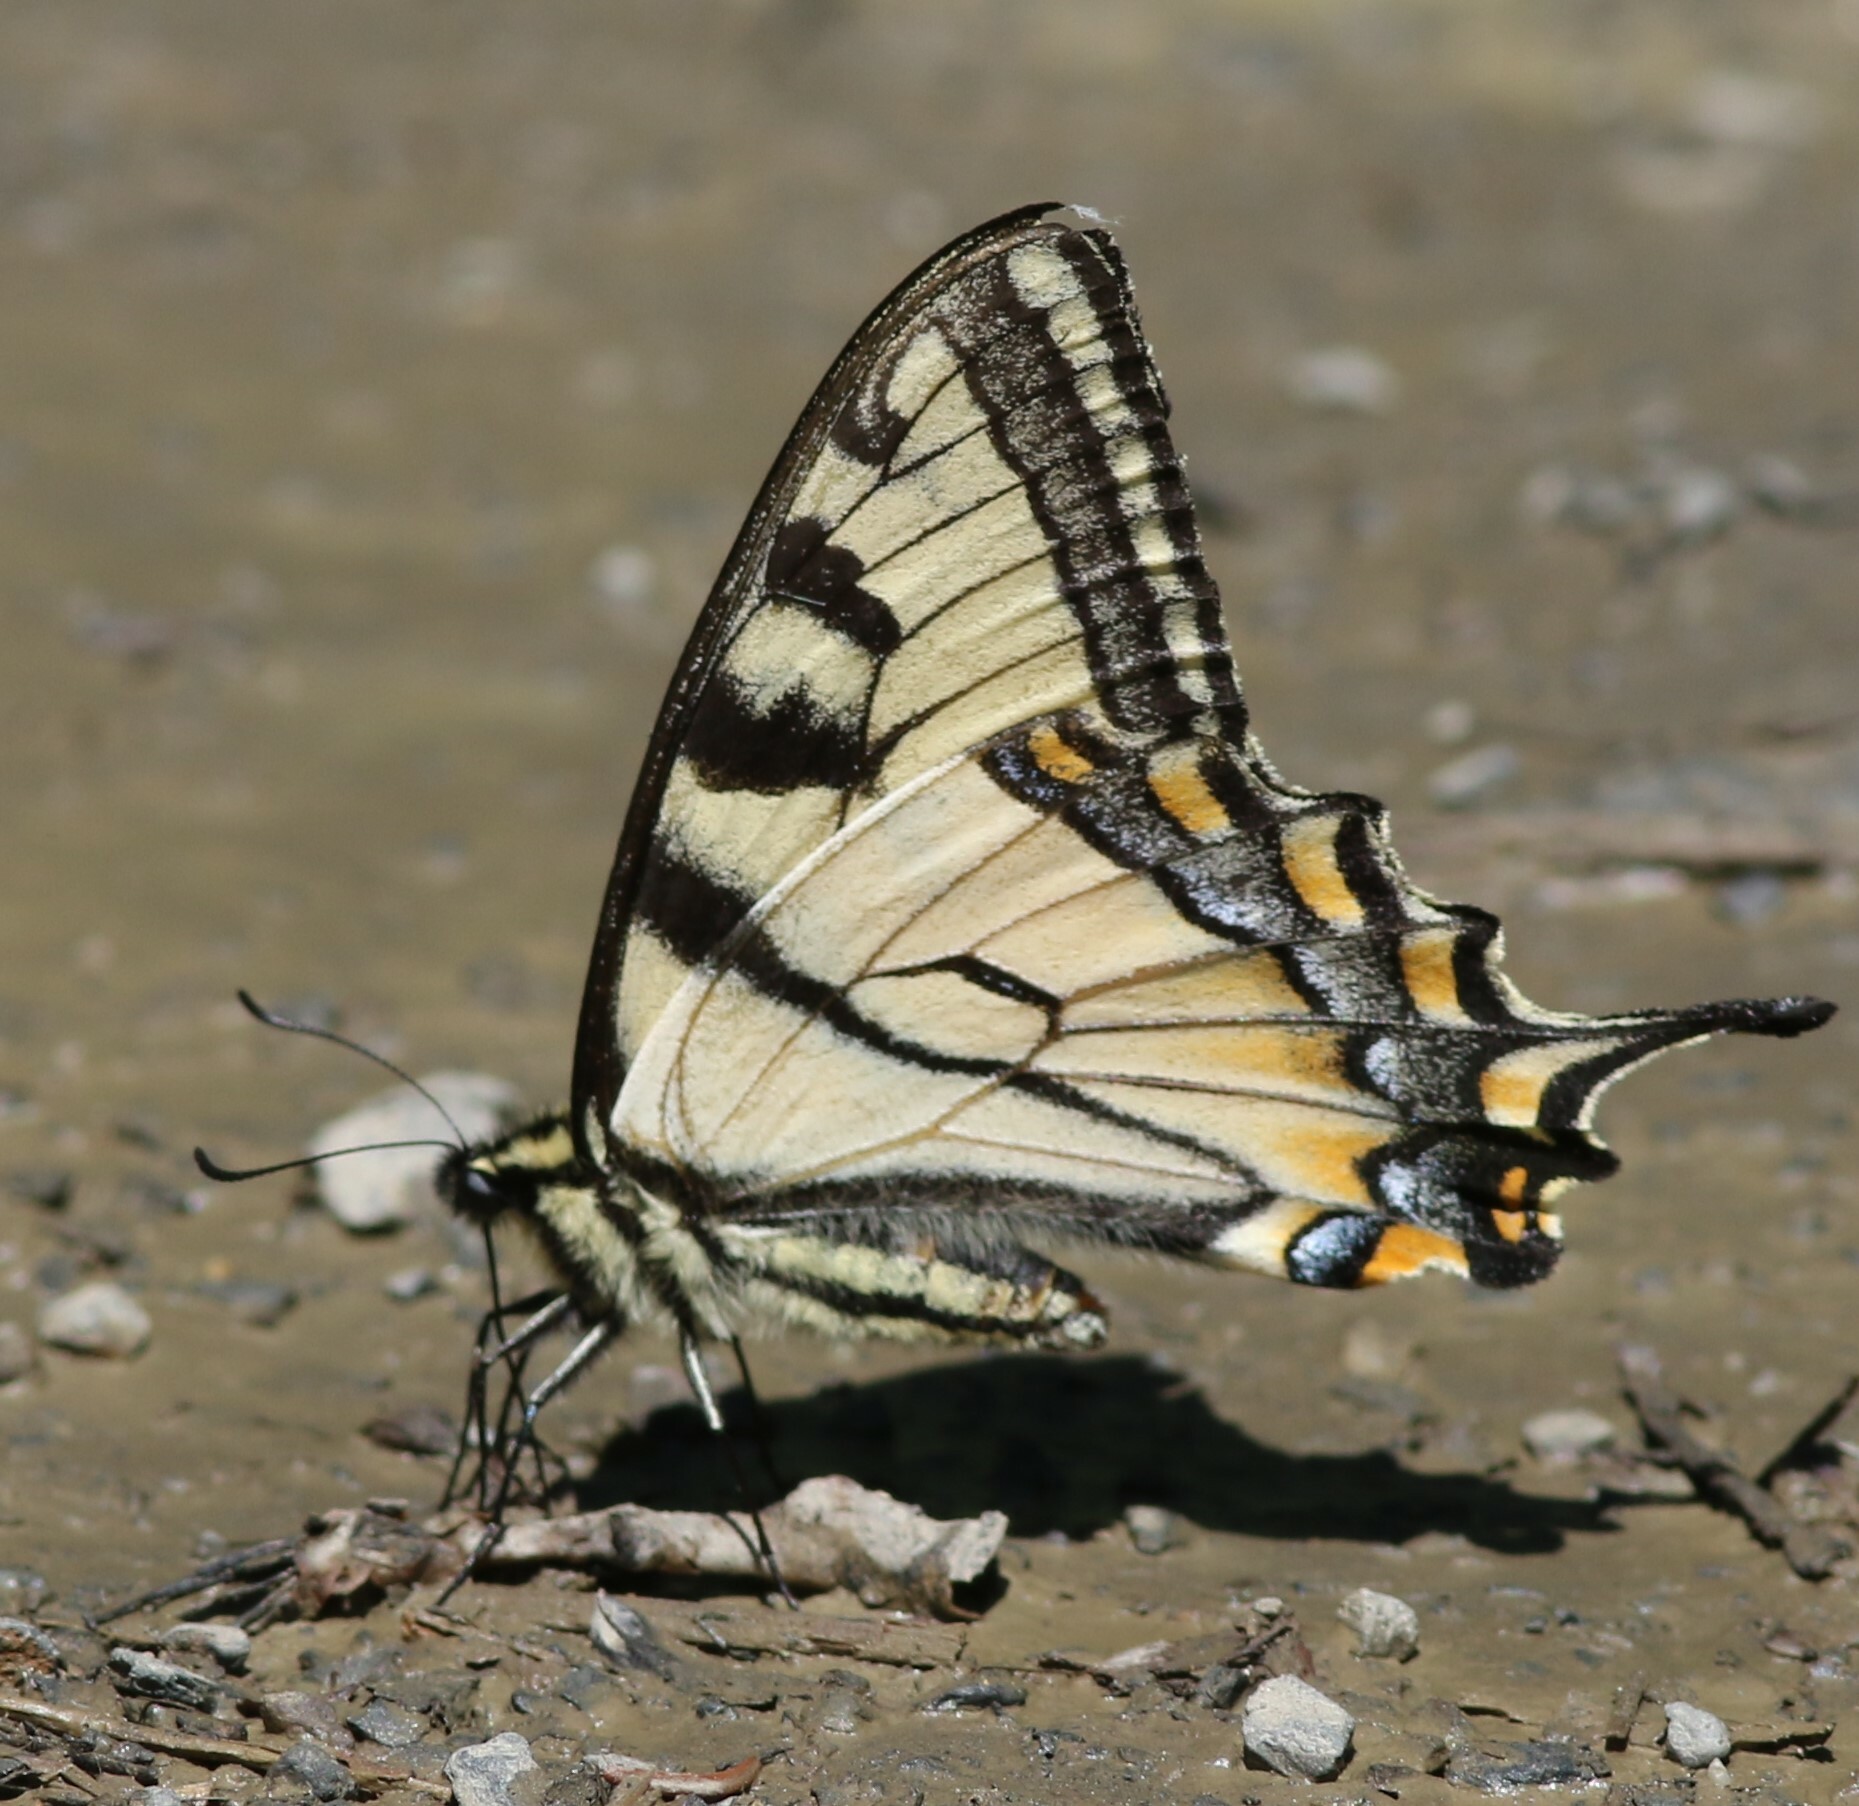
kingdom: Animalia
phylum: Arthropoda
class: Insecta
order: Lepidoptera
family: Papilionidae
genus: Papilio
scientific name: Papilio canadensis
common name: Canadian tiger swallowtail
